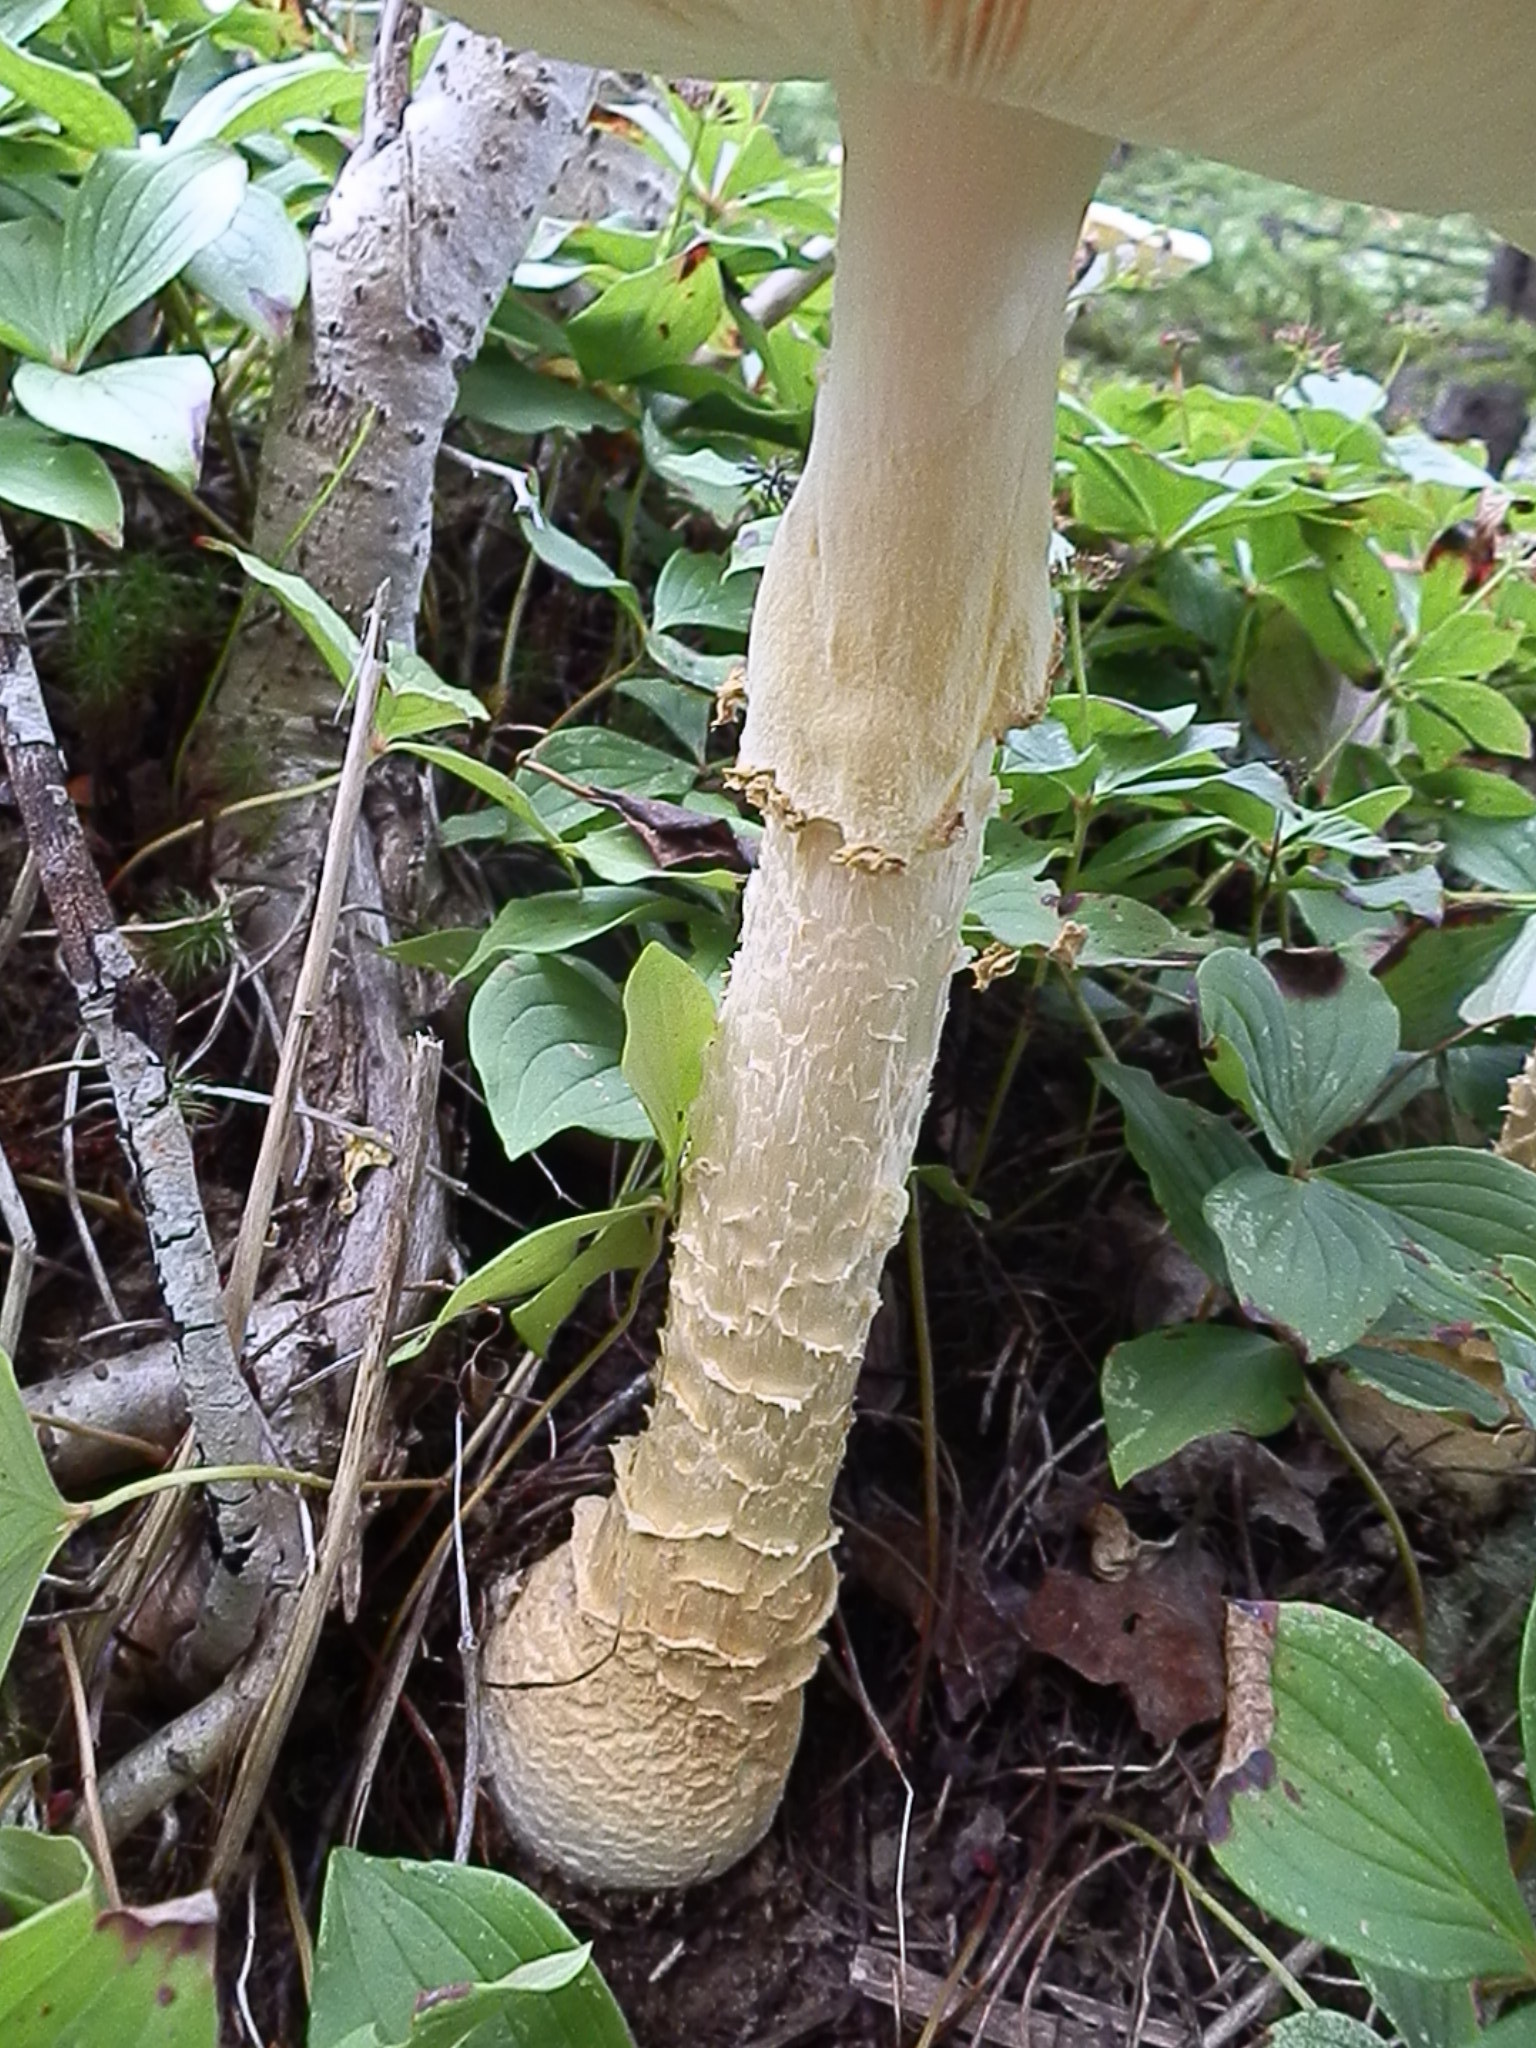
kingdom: Fungi
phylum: Basidiomycota
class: Agaricomycetes
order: Agaricales
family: Amanitaceae
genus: Amanita
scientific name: Amanita muscaria
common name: Fly agaric
